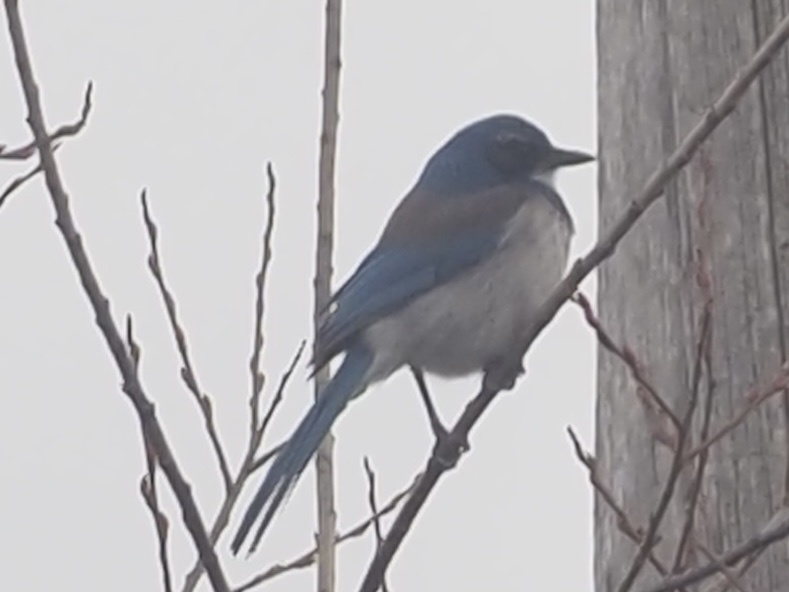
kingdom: Animalia
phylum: Chordata
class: Aves
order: Passeriformes
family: Corvidae
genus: Aphelocoma
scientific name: Aphelocoma californica
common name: California scrub-jay
